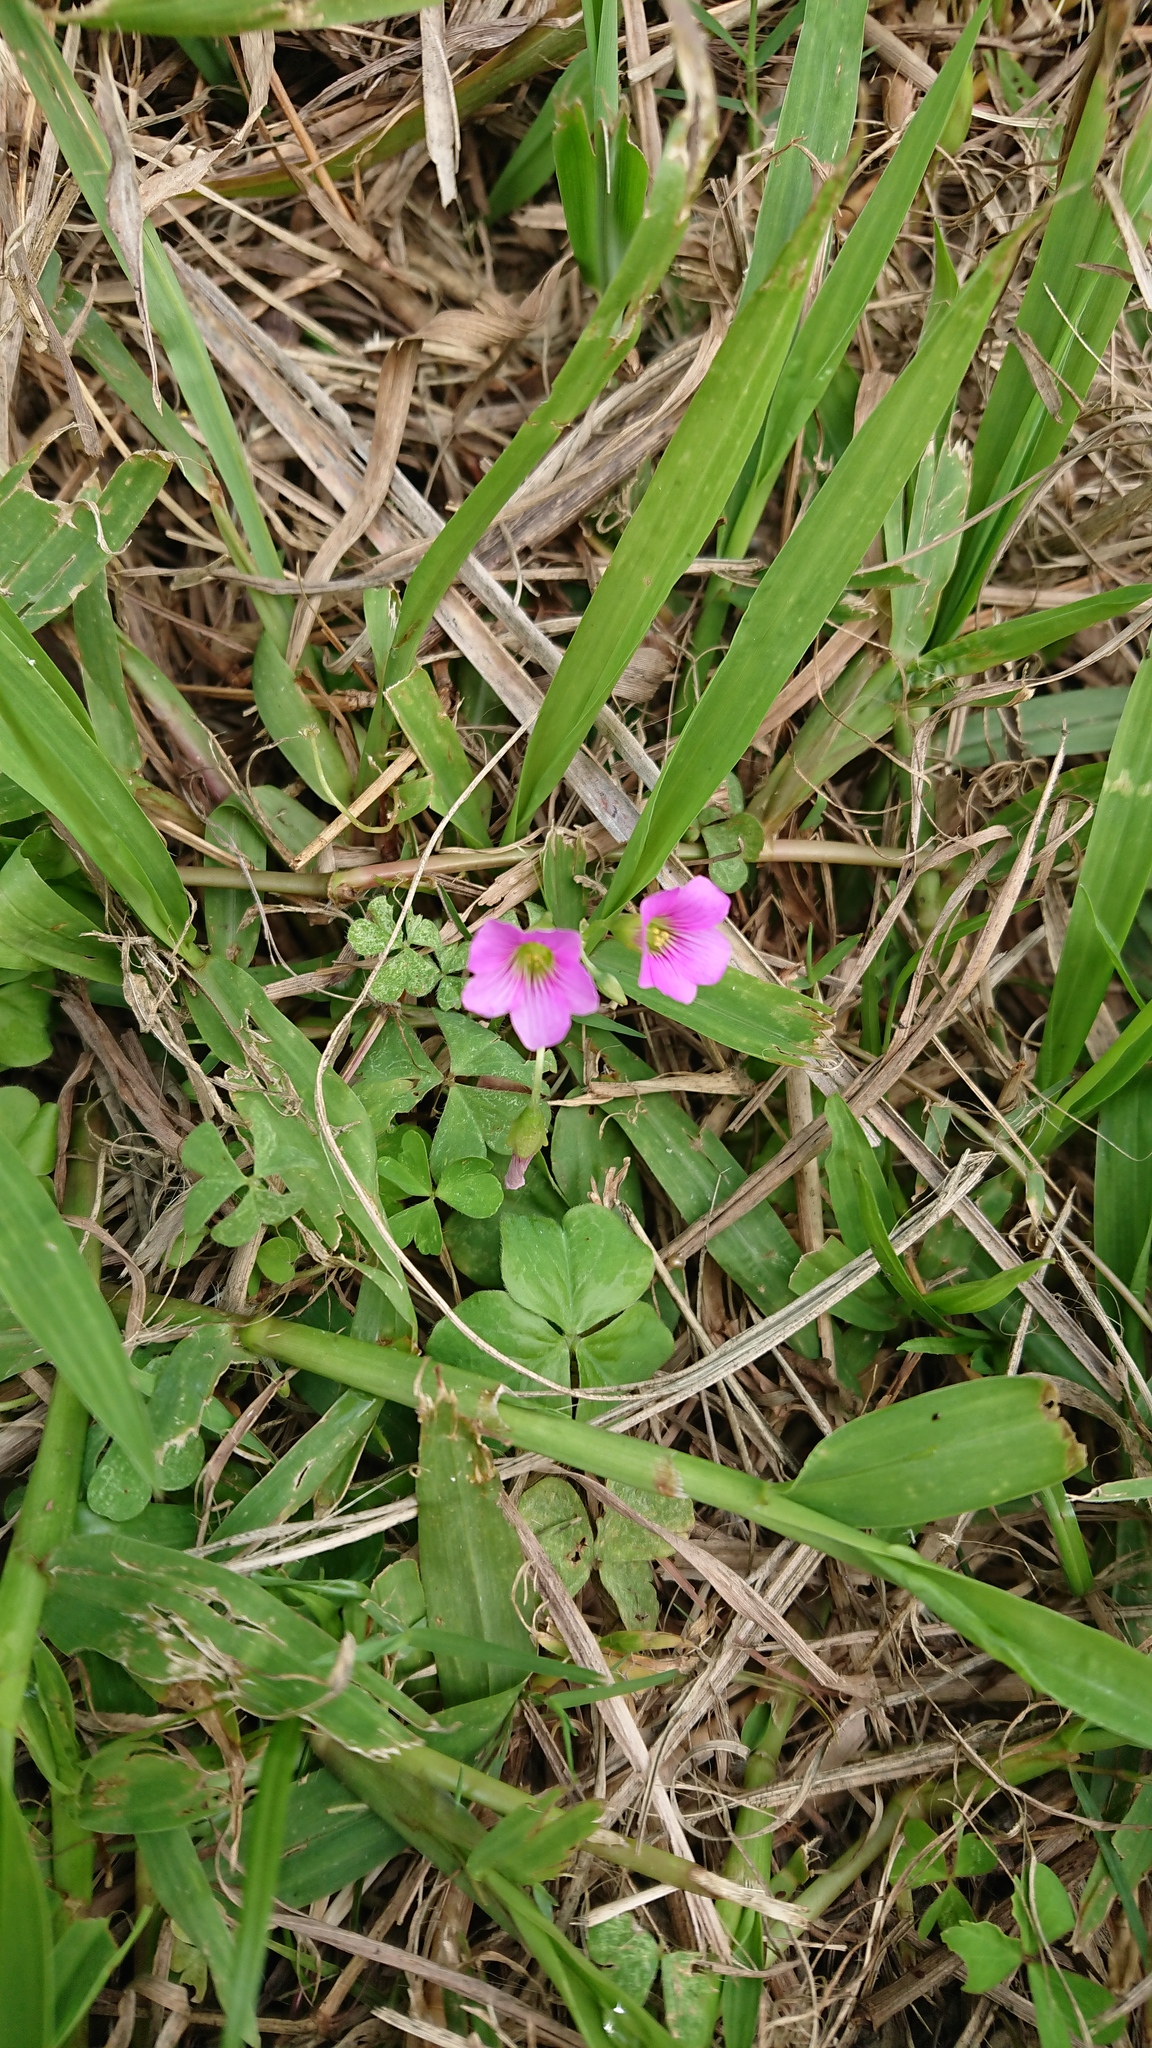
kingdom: Plantae
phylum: Tracheophyta
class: Magnoliopsida
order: Oxalidales
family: Oxalidaceae
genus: Oxalis
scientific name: Oxalis debilis
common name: Large-flowered pink-sorrel
